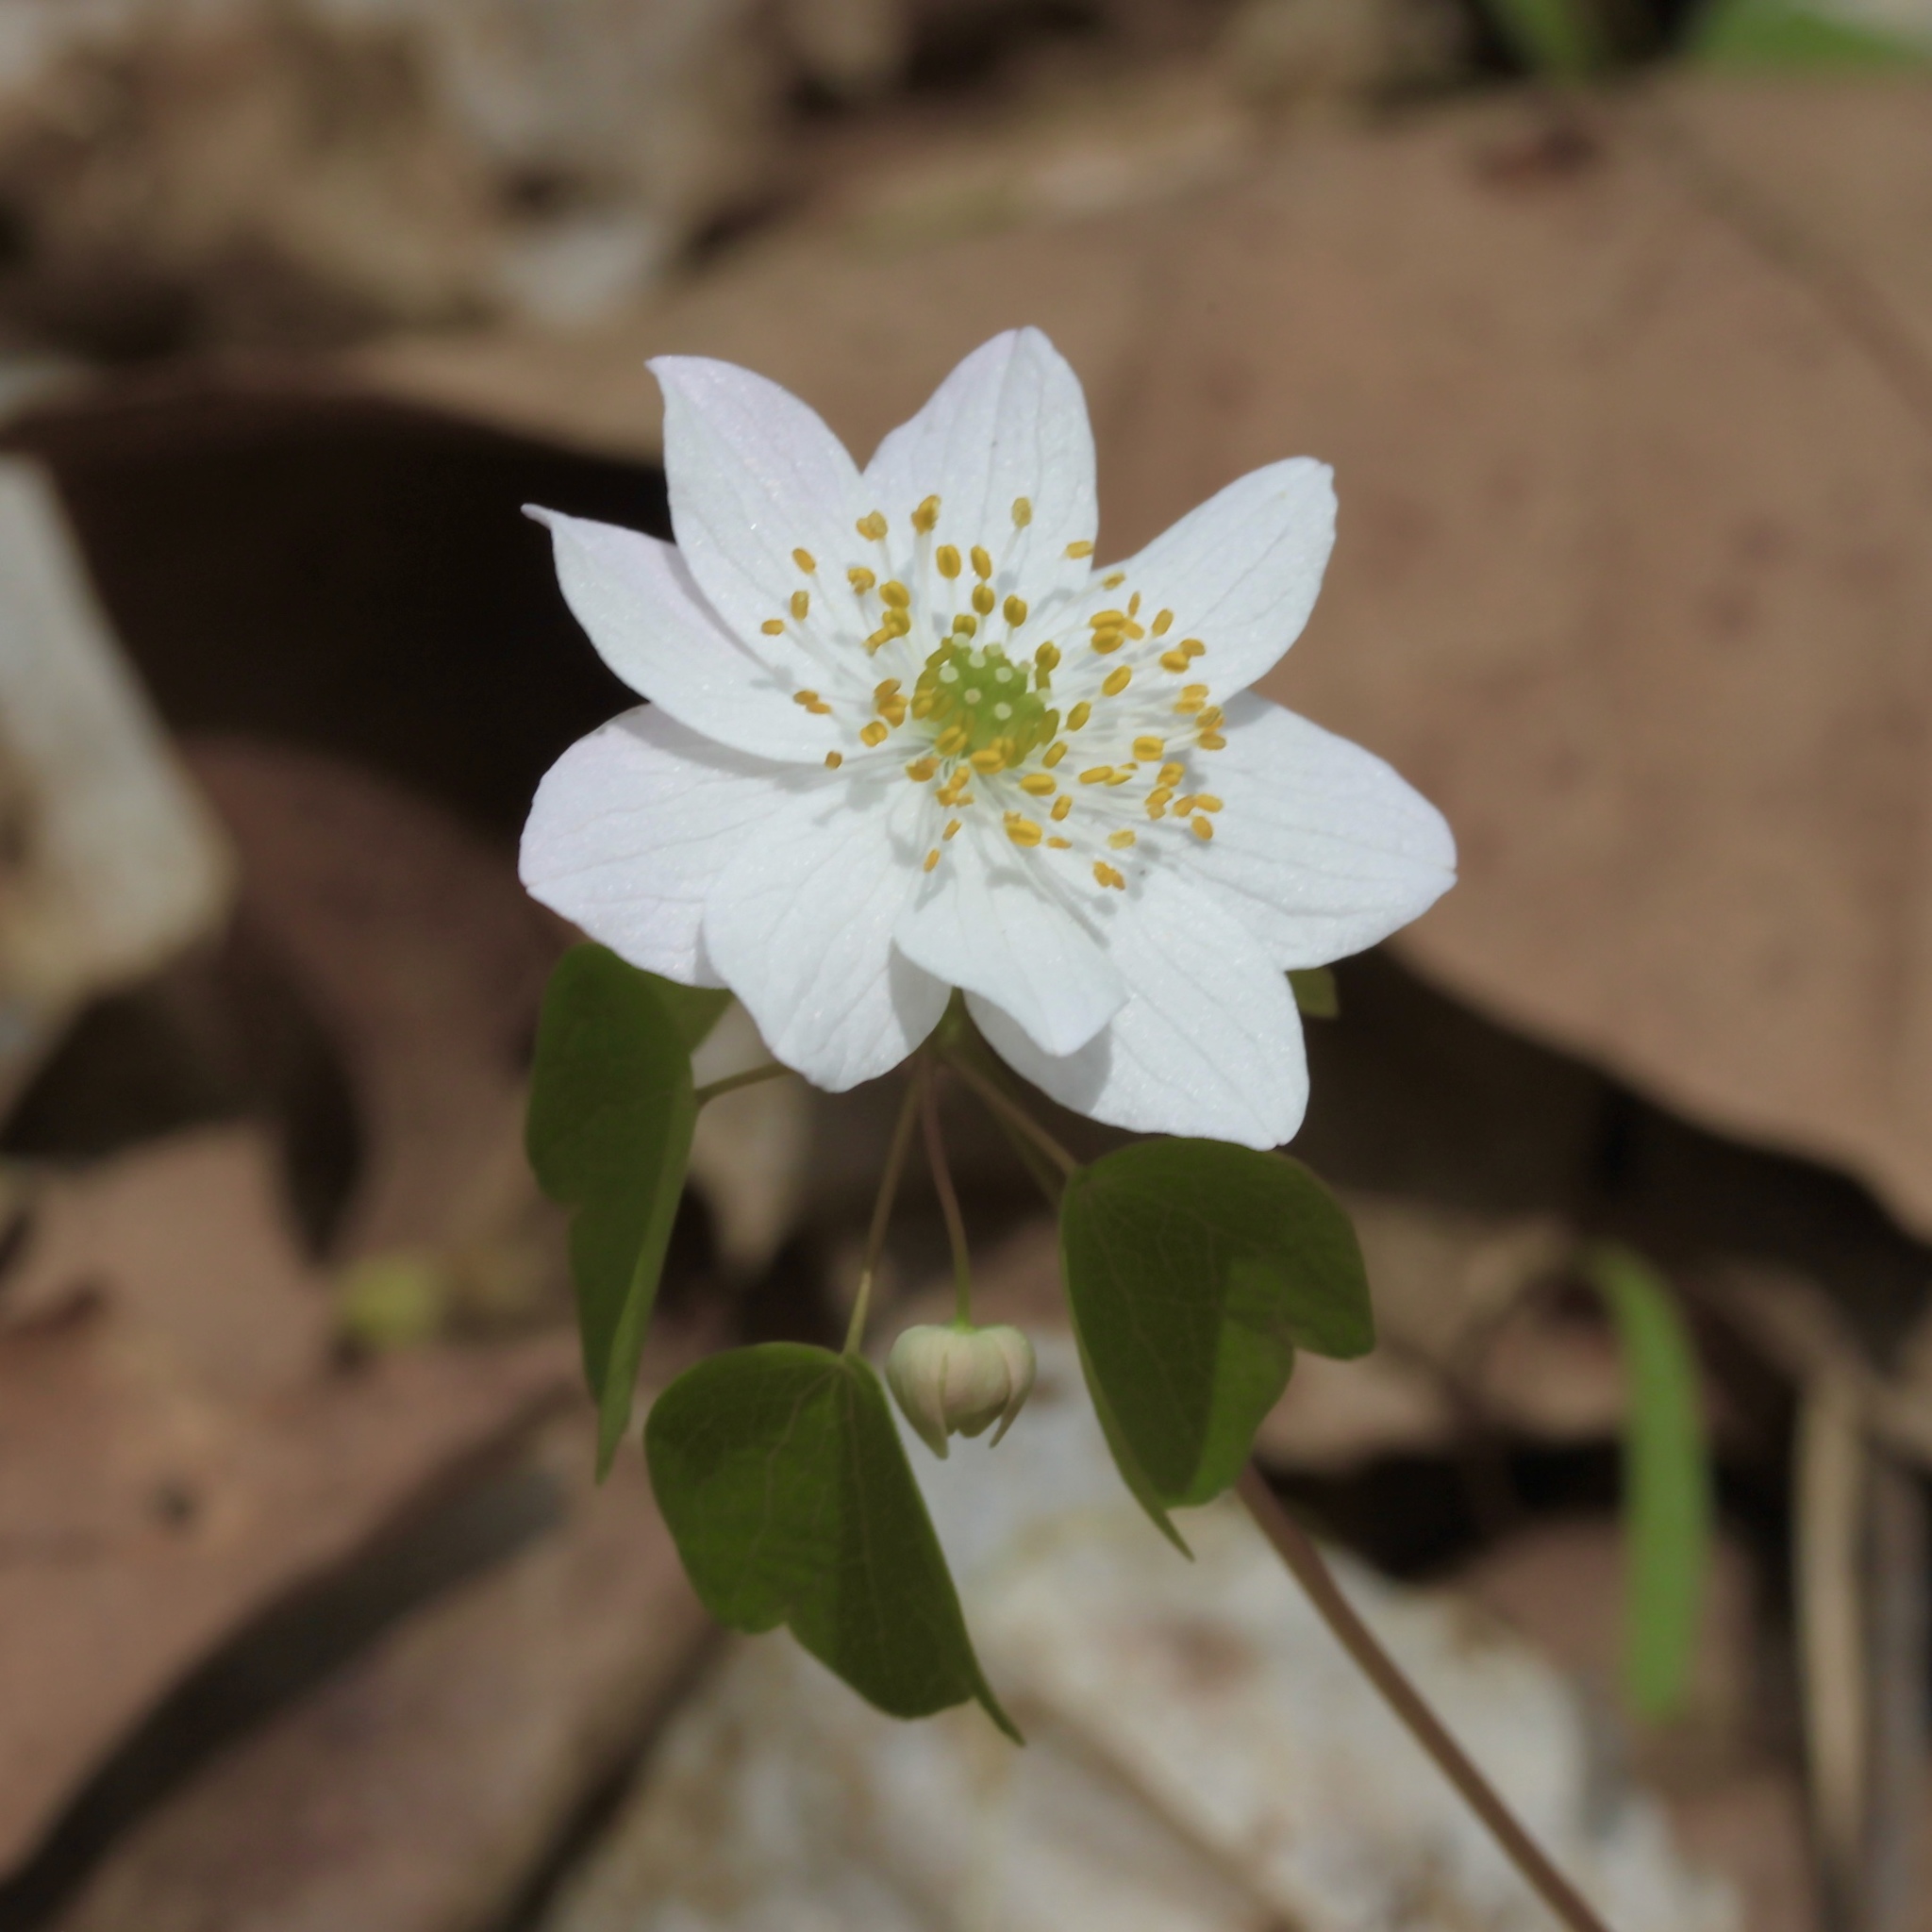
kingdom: Plantae
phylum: Tracheophyta
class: Magnoliopsida
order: Ranunculales
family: Ranunculaceae
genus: Thalictrum
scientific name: Thalictrum thalictroides
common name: Rue-anemone
